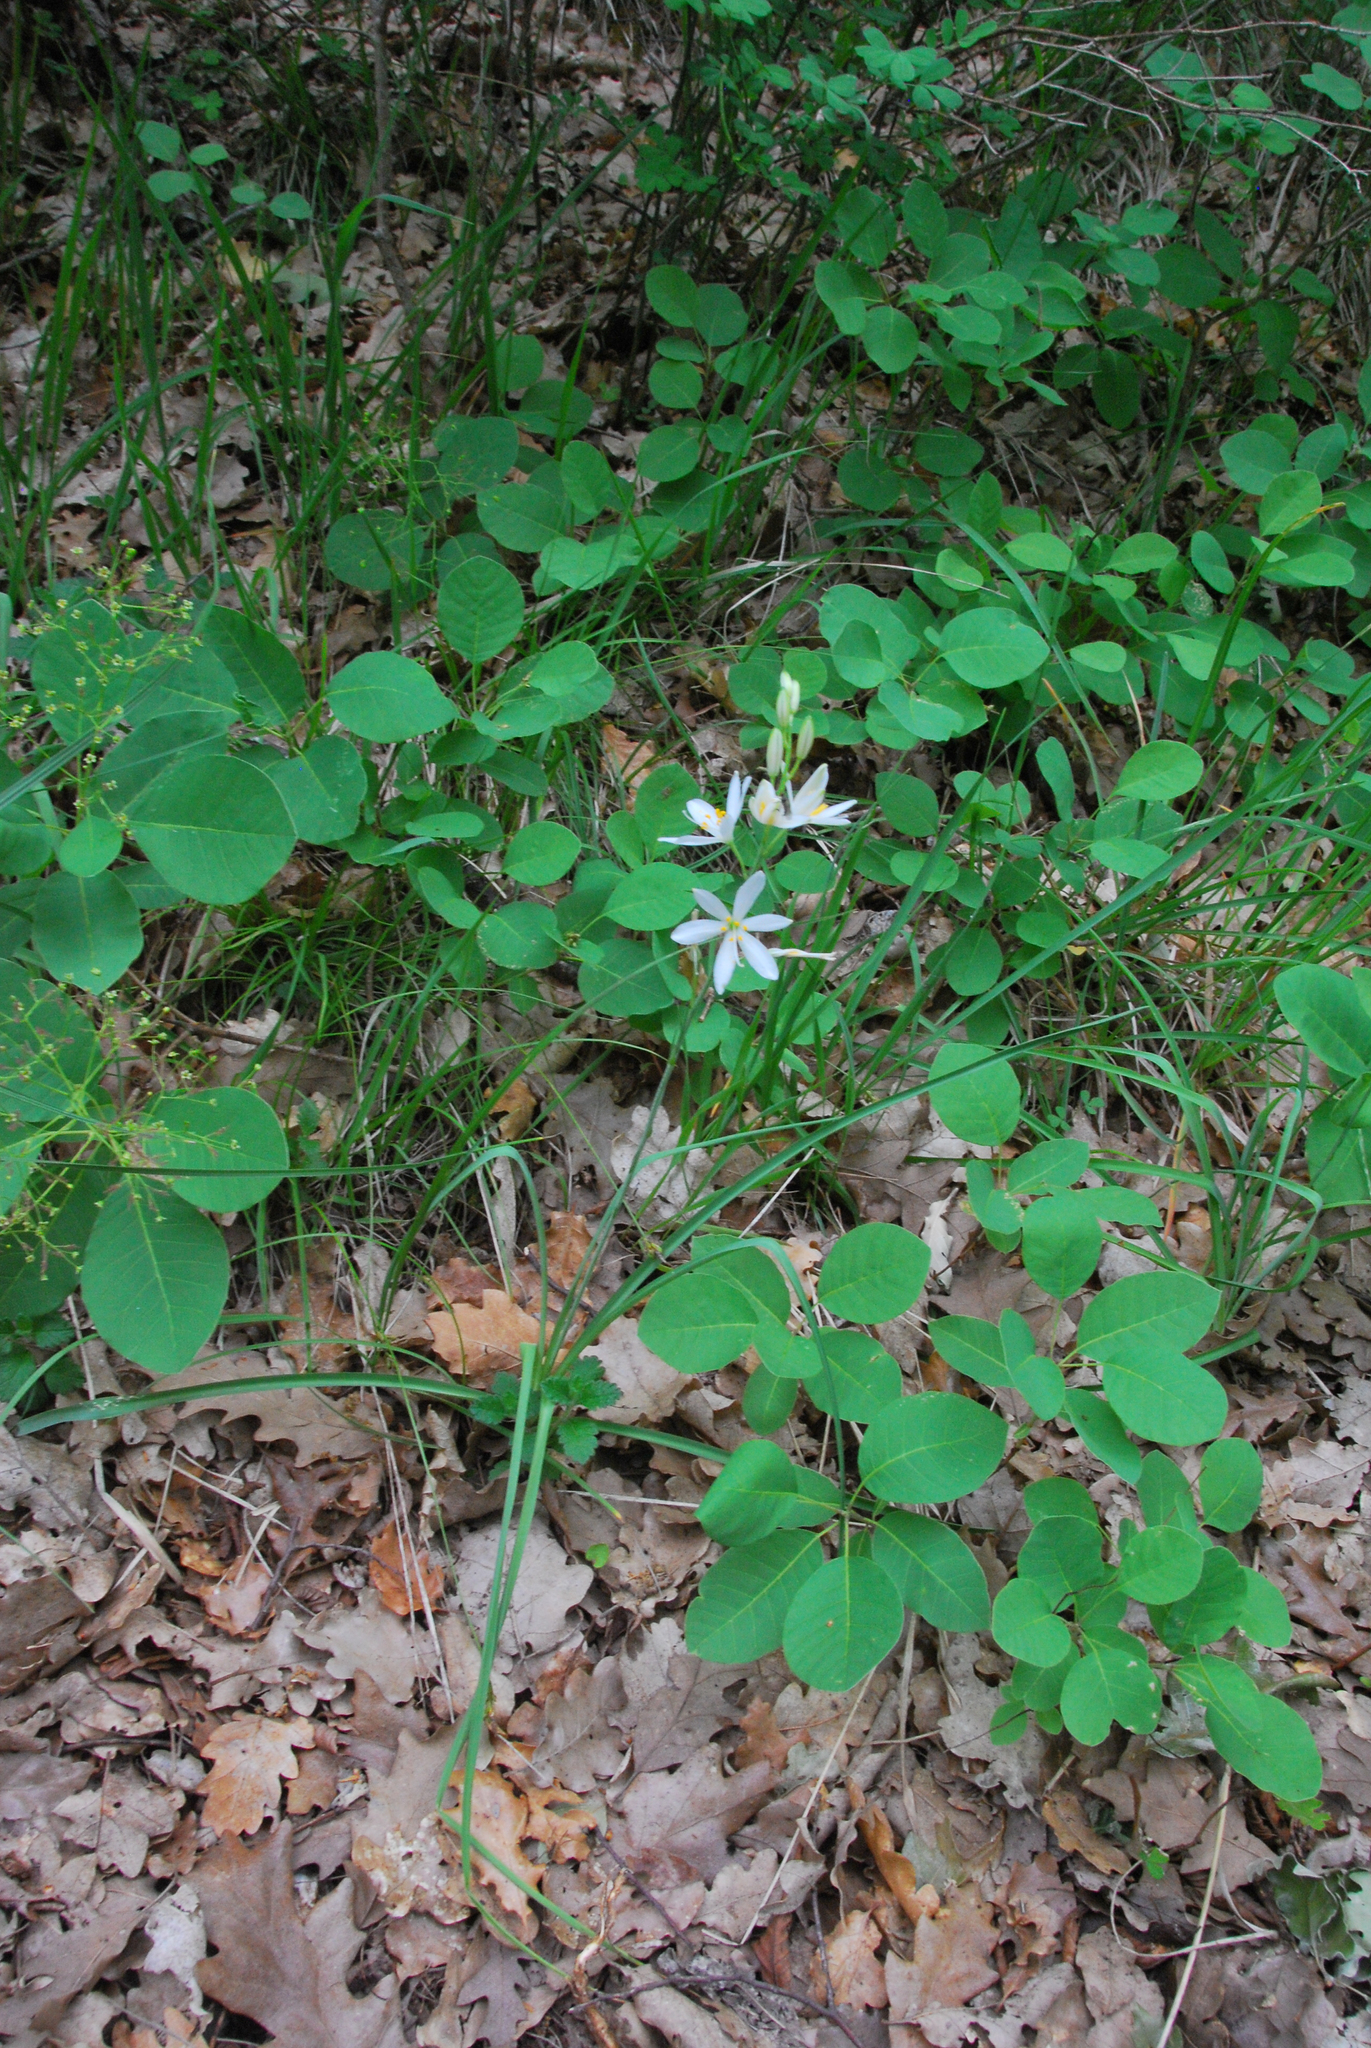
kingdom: Plantae
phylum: Tracheophyta
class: Liliopsida
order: Asparagales
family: Asparagaceae
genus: Anthericum
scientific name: Anthericum liliago
